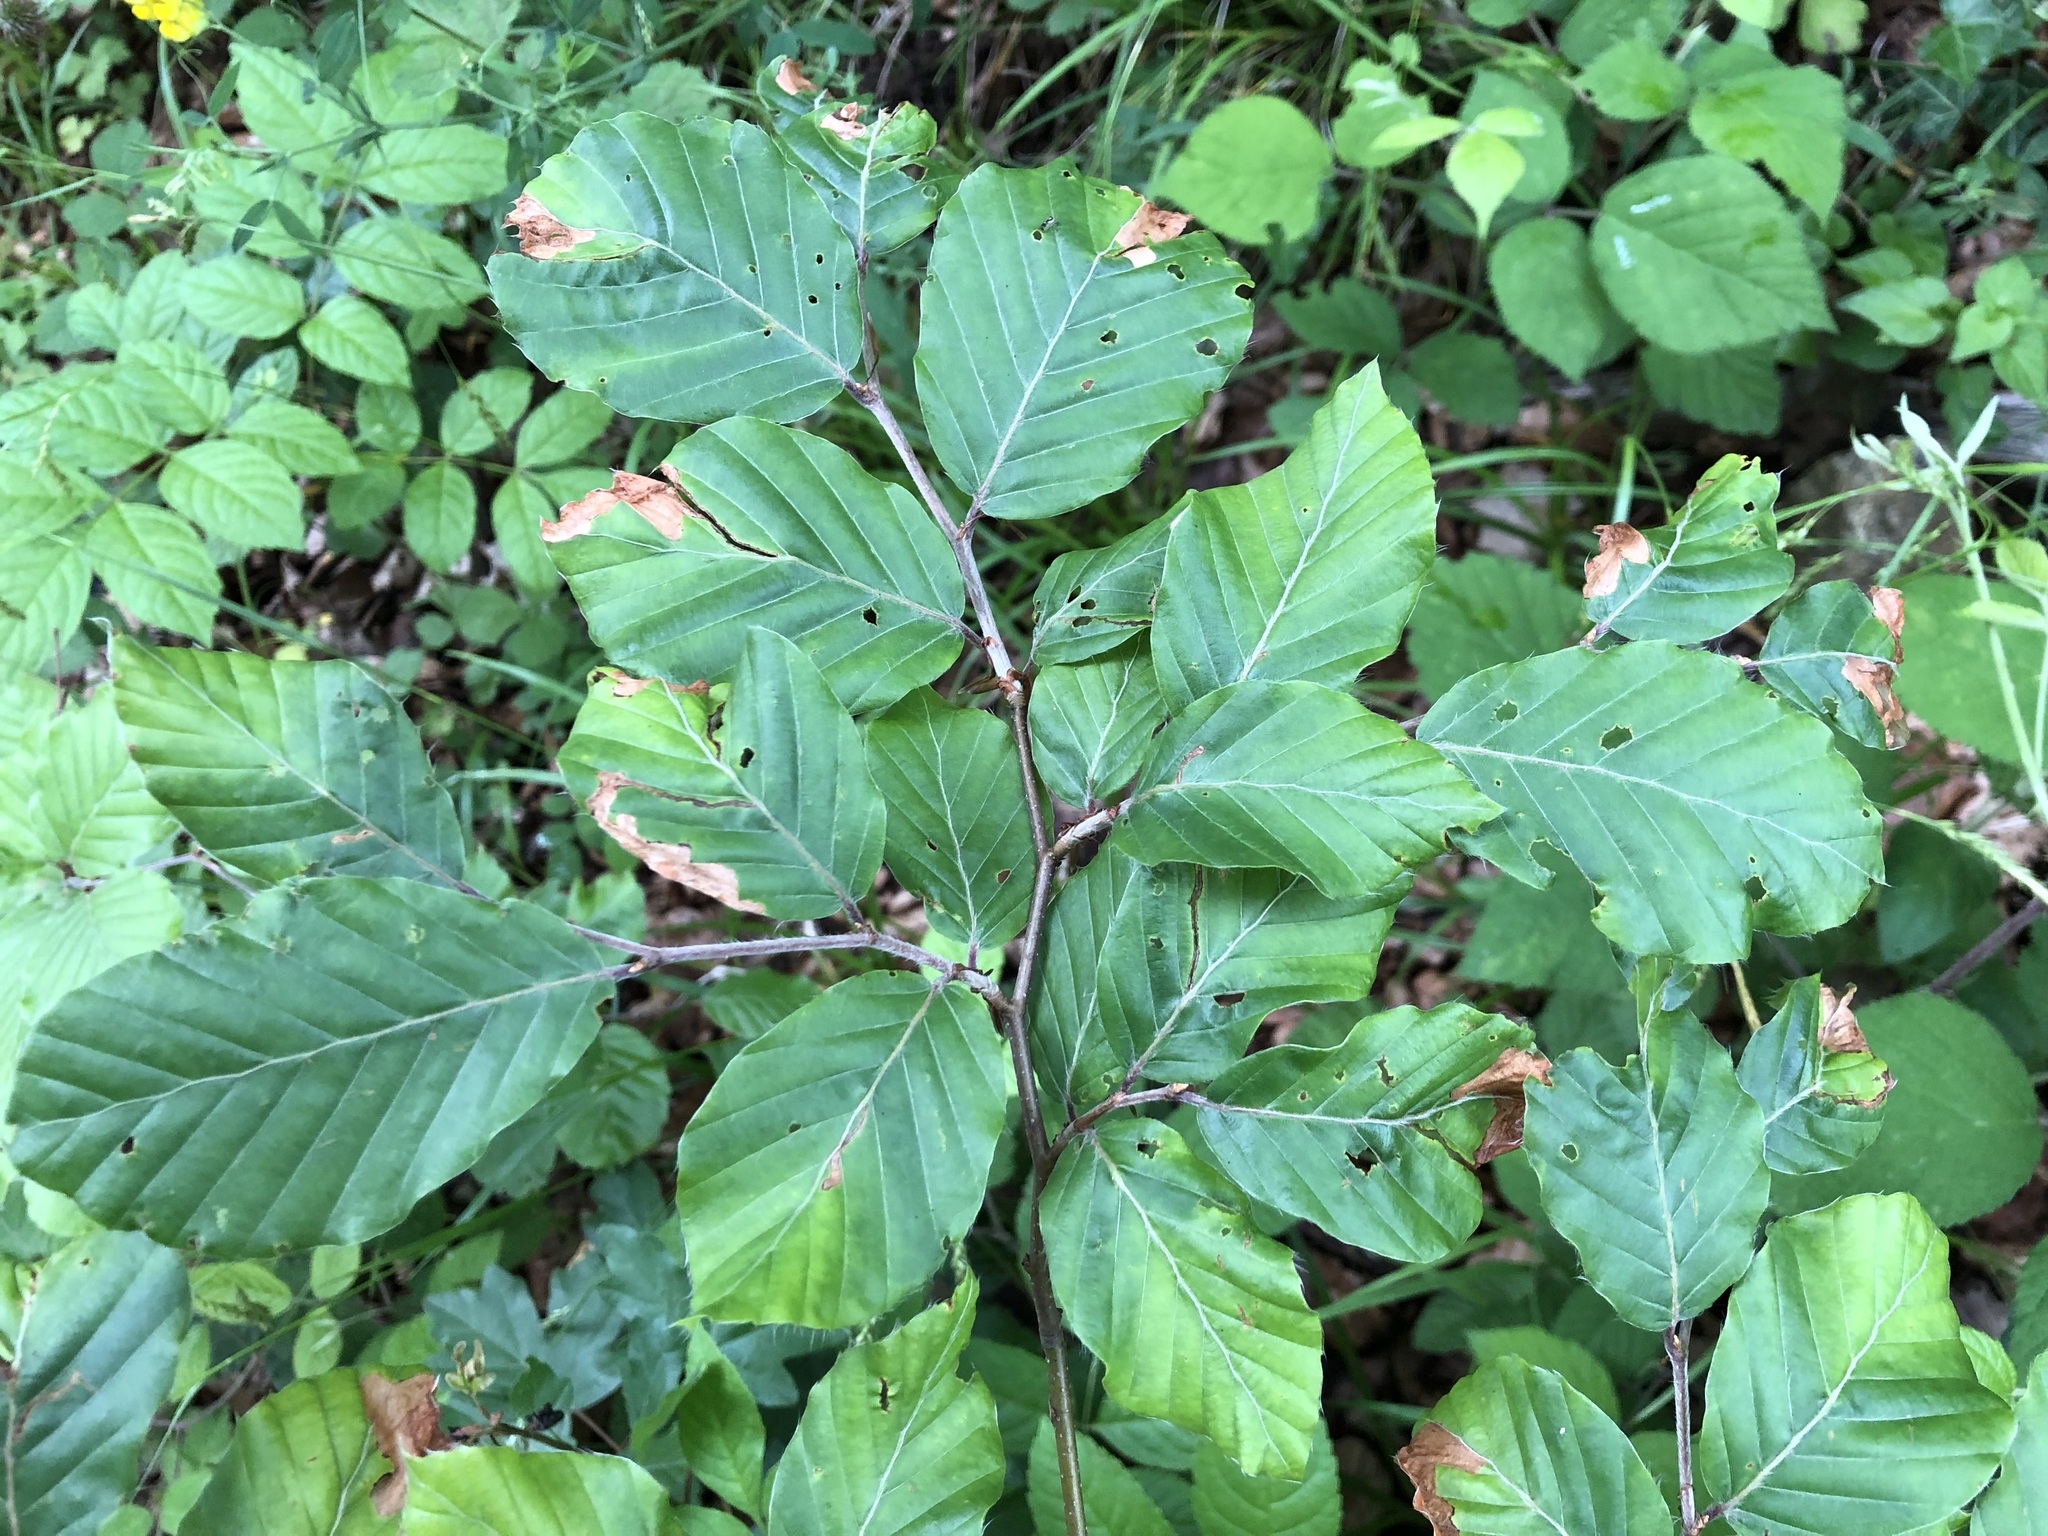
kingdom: Plantae
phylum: Tracheophyta
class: Magnoliopsida
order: Fagales
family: Fagaceae
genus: Fagus
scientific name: Fagus sylvatica
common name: Beech
